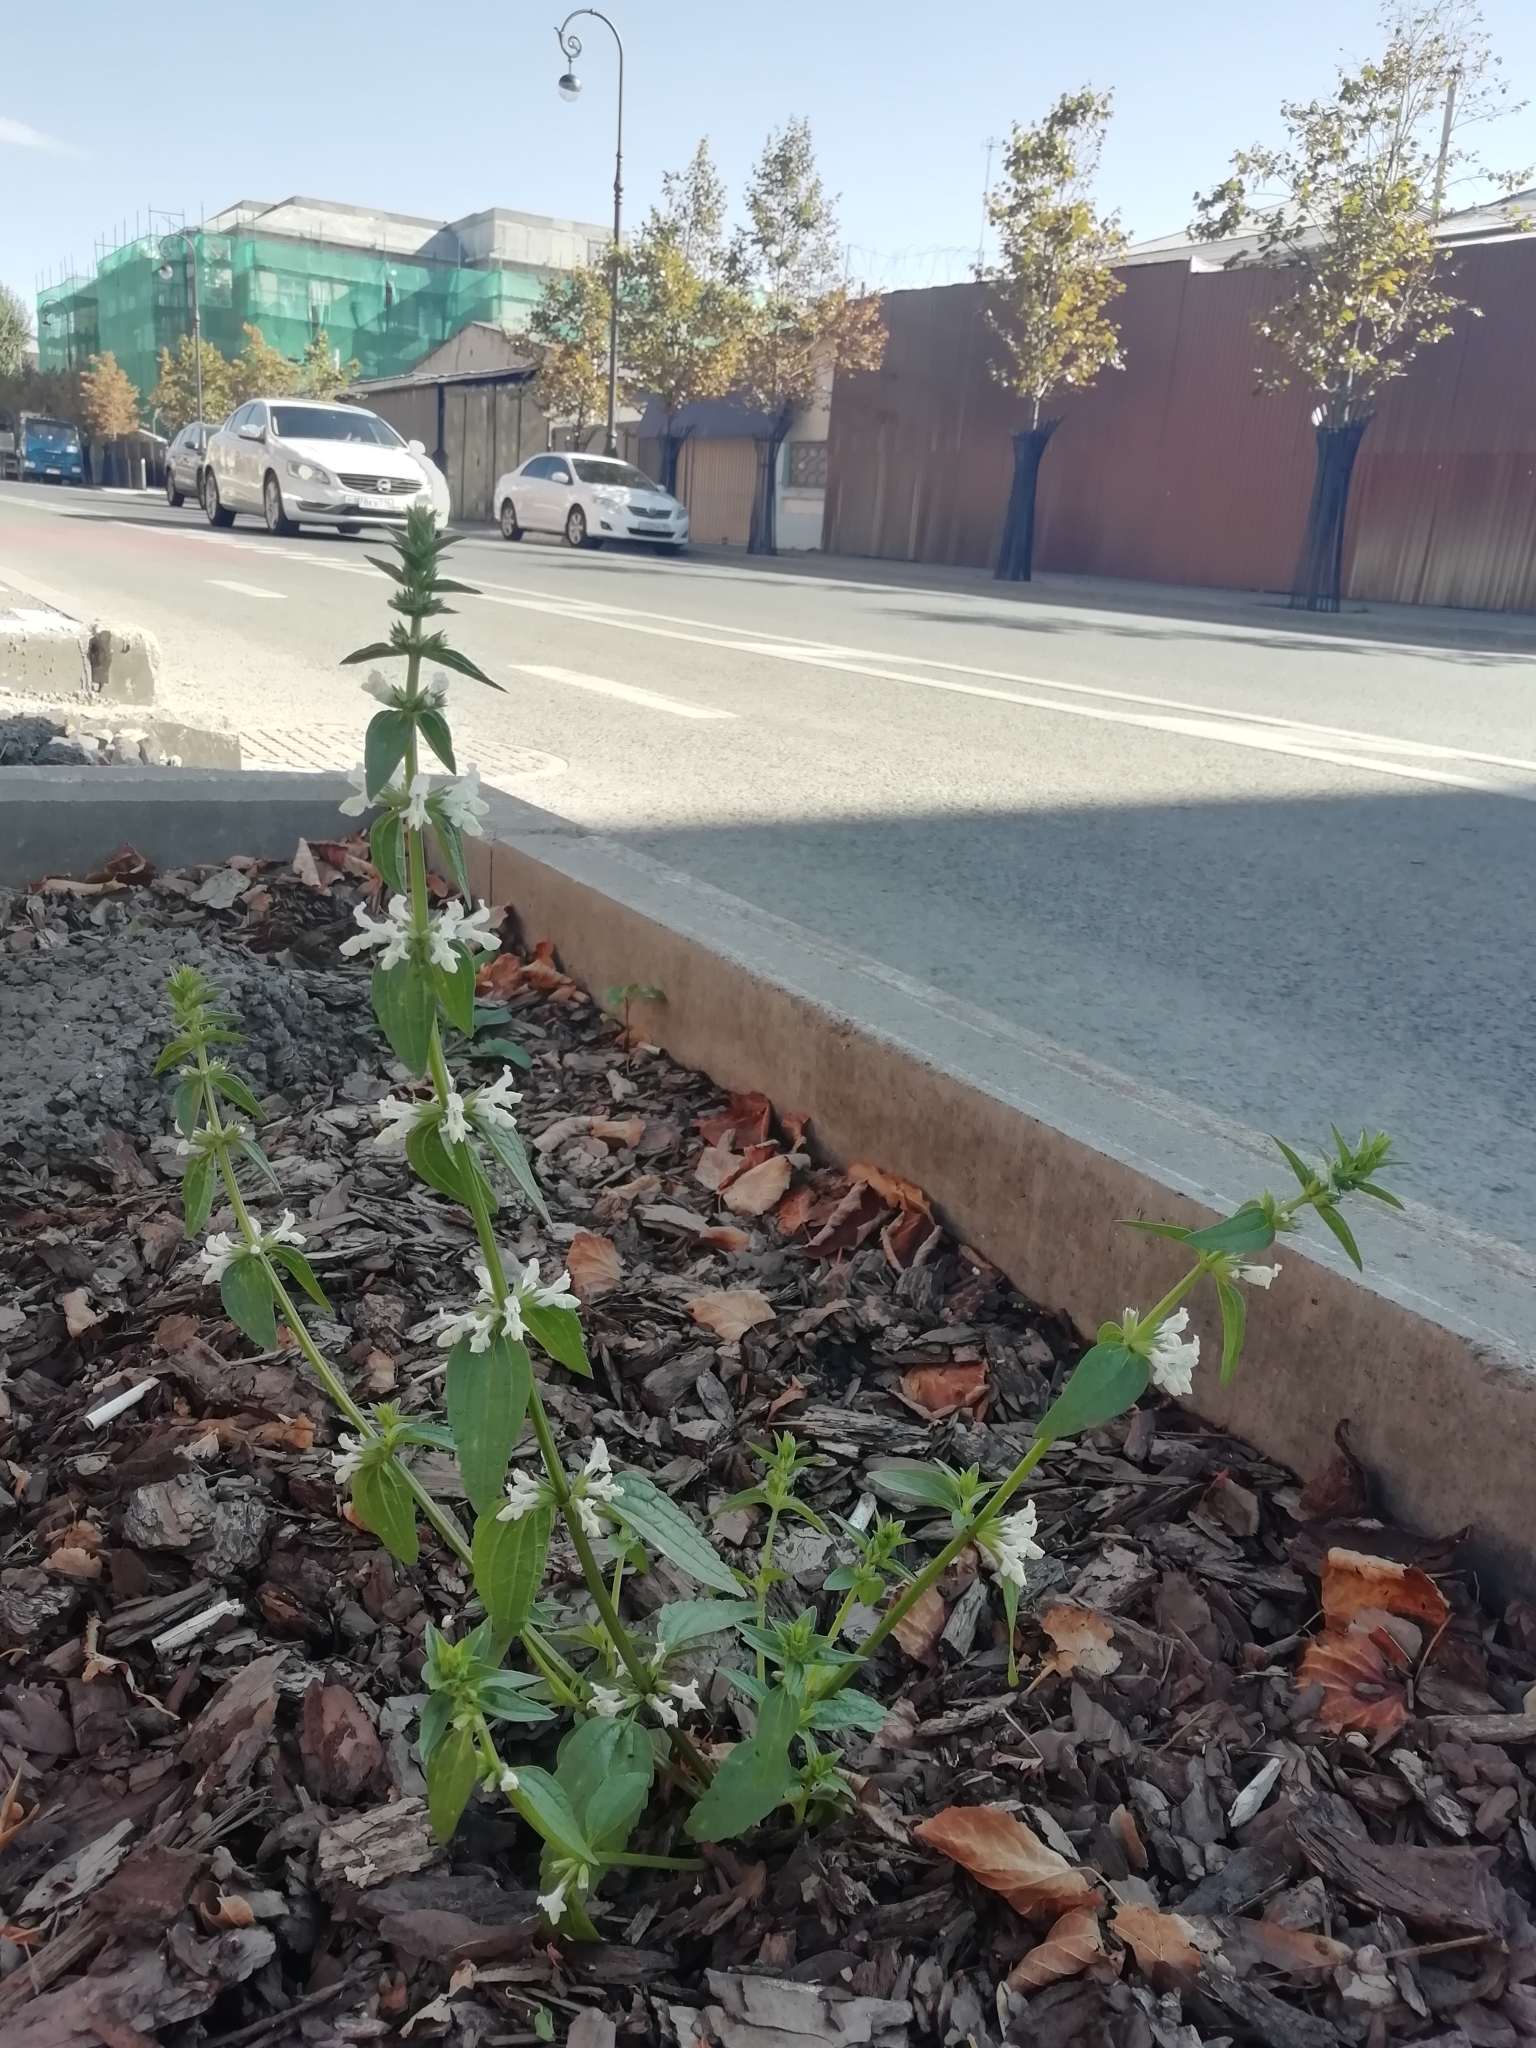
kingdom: Plantae
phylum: Tracheophyta
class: Magnoliopsida
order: Lamiales
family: Lamiaceae
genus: Stachys
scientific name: Stachys annua
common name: Annual yellow-woundwort
